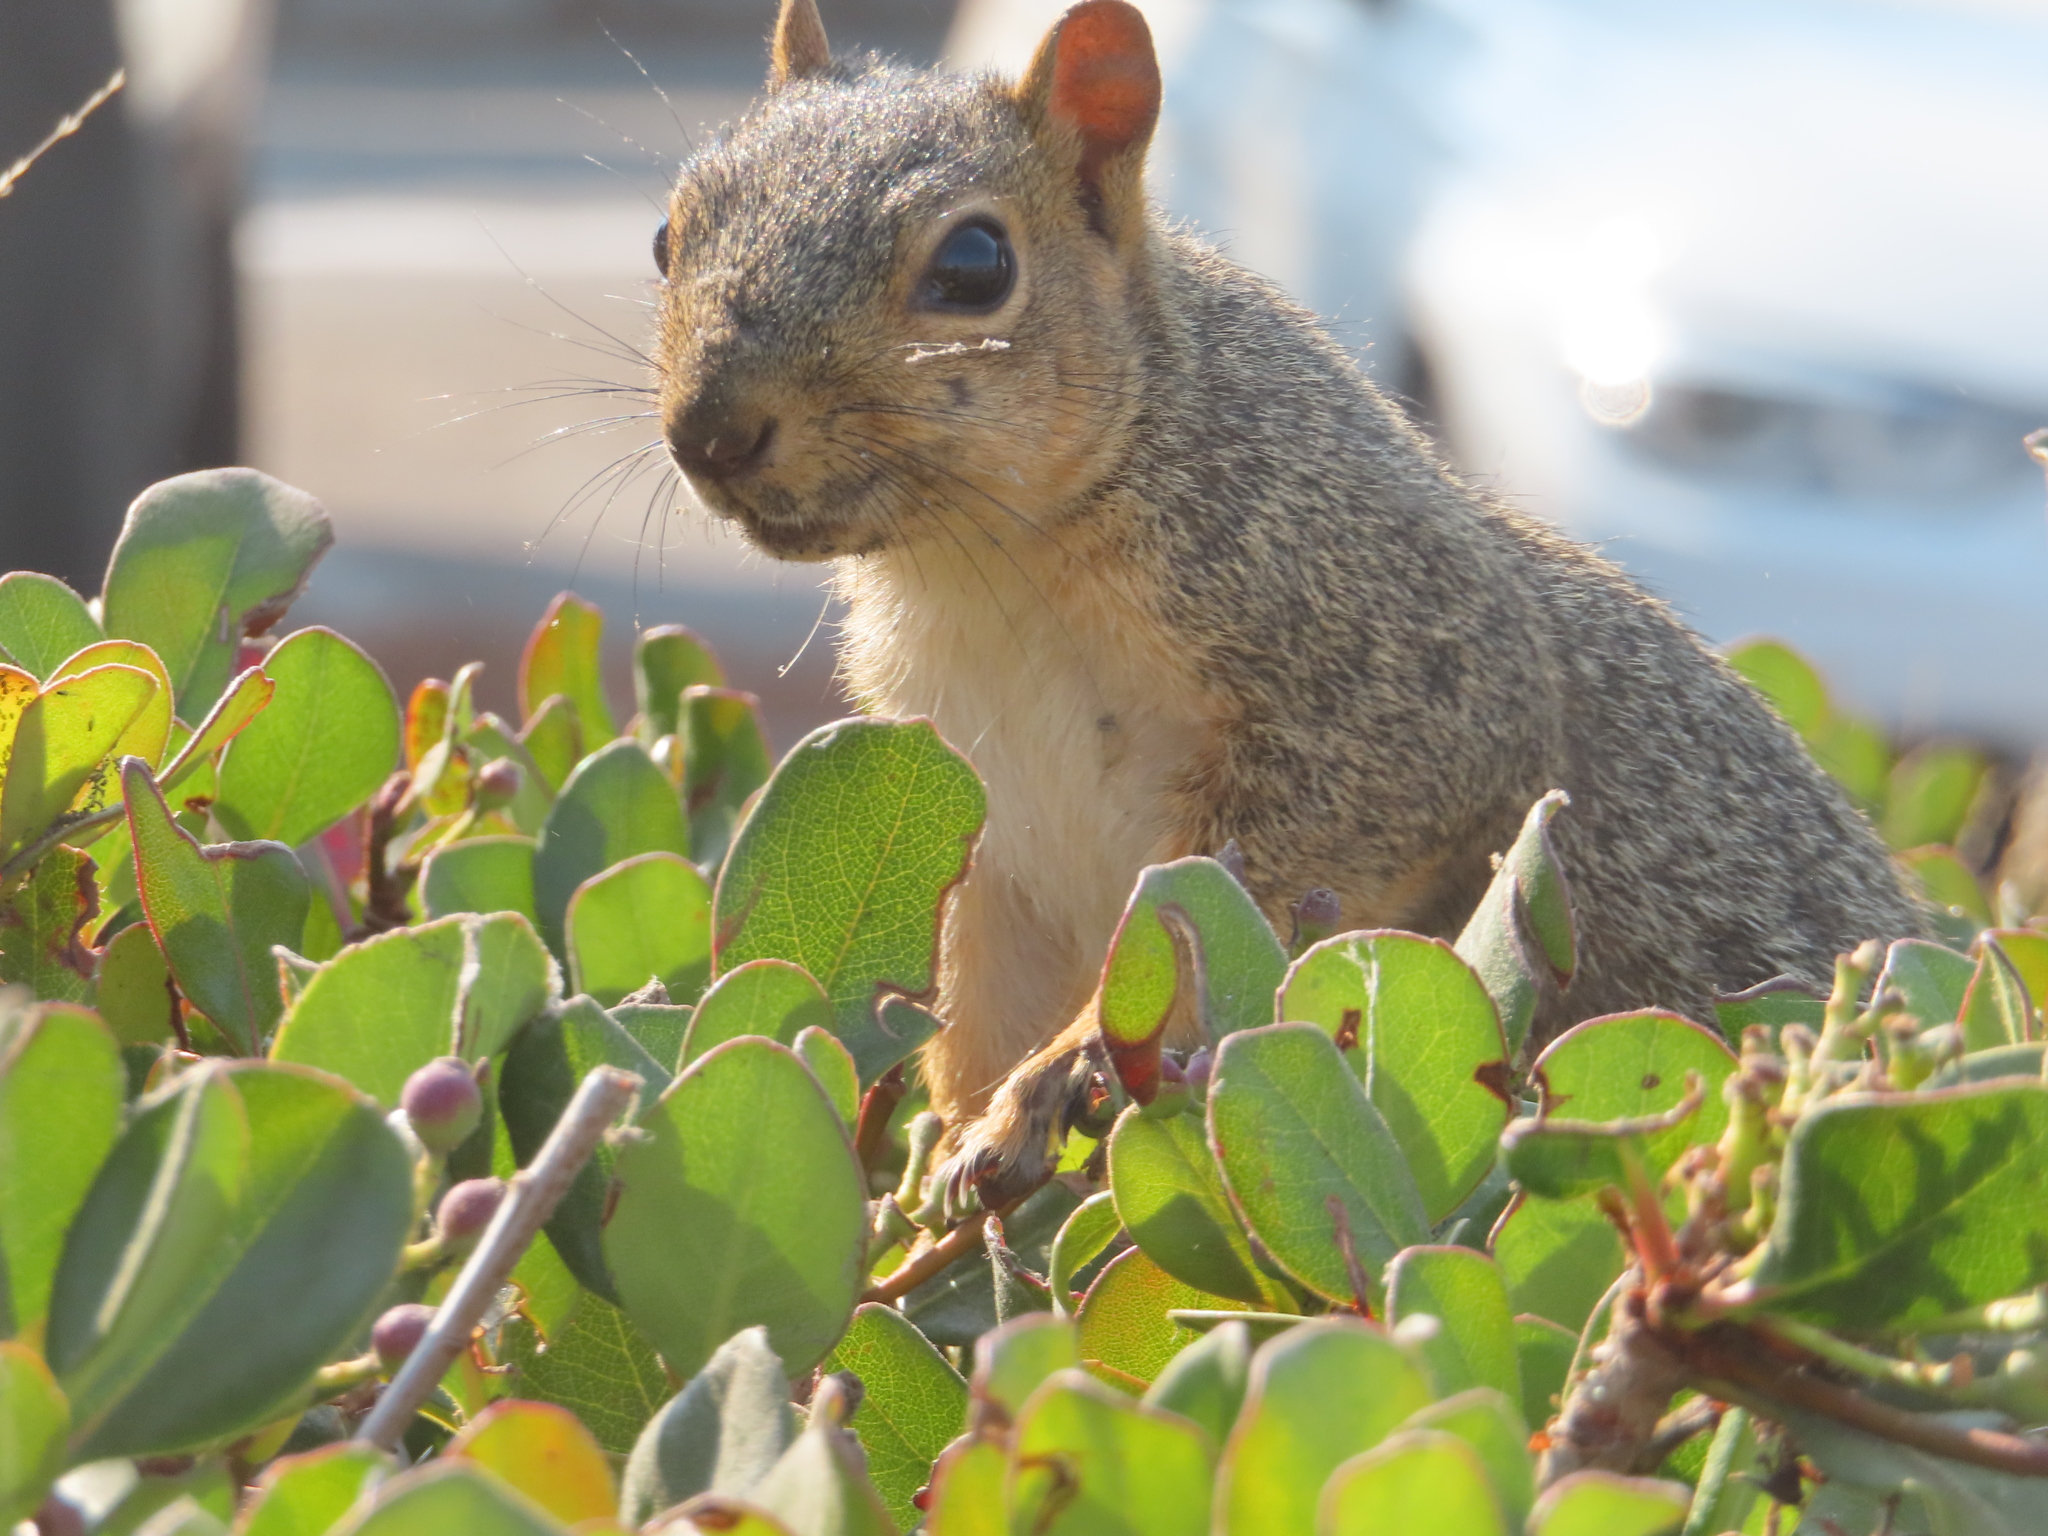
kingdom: Animalia
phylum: Chordata
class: Mammalia
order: Rodentia
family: Sciuridae
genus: Sciurus
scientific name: Sciurus niger
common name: Fox squirrel
